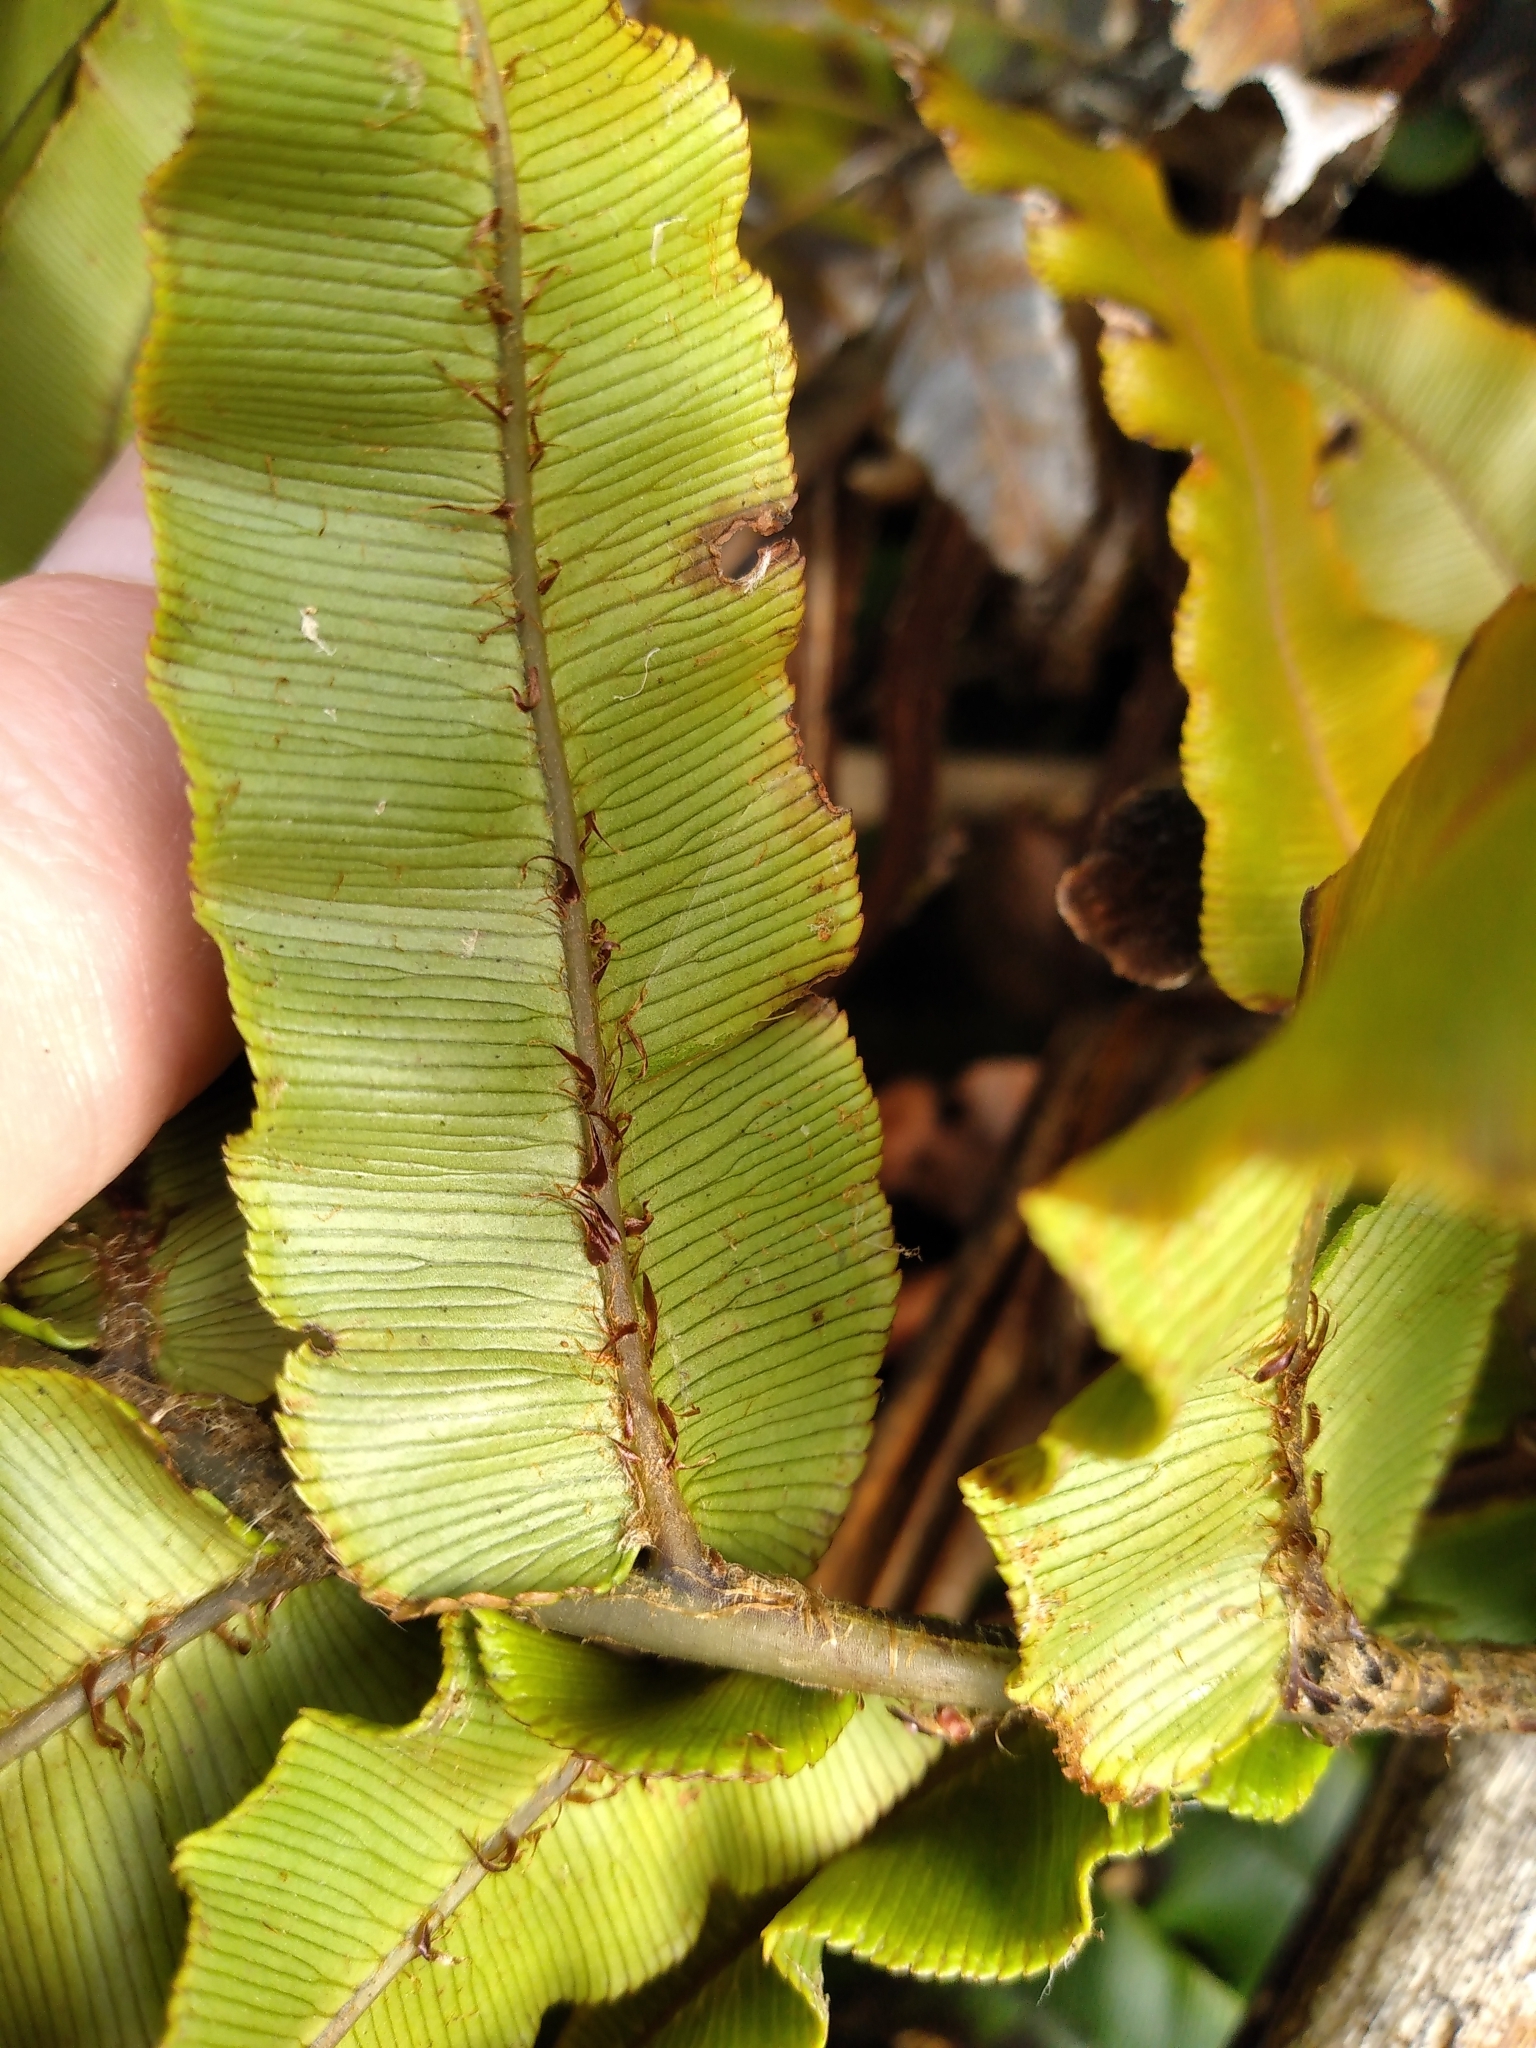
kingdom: Plantae
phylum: Tracheophyta
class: Polypodiopsida
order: Polypodiales
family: Blechnaceae
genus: Parablechnum
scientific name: Parablechnum procerum
